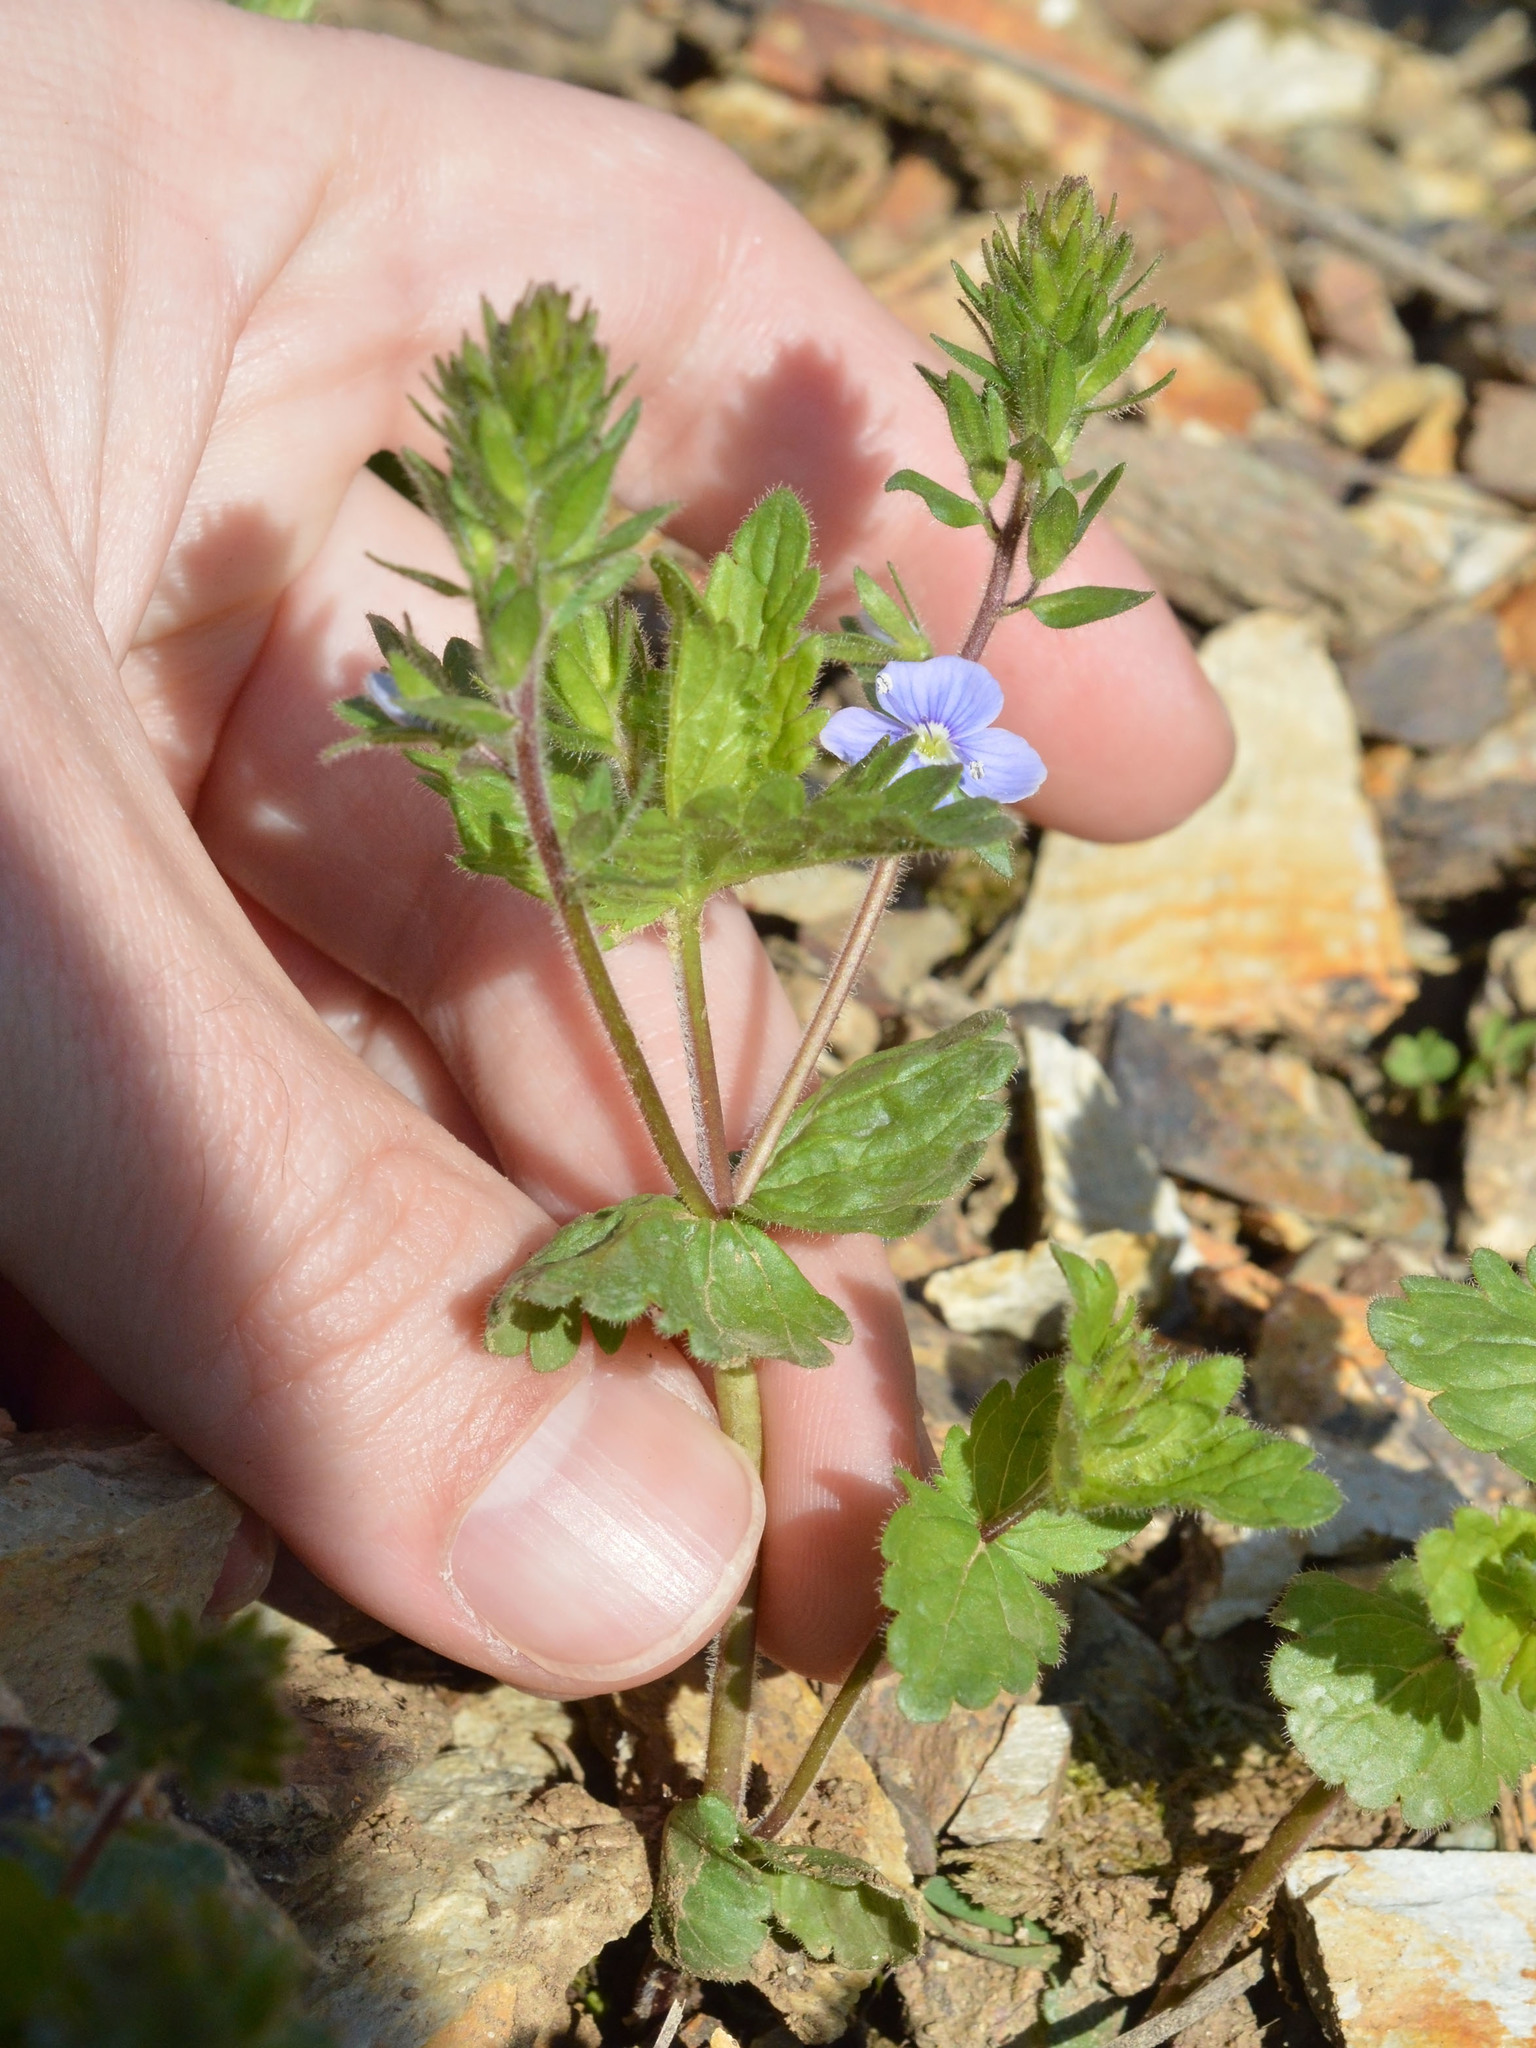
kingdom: Plantae
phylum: Tracheophyta
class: Magnoliopsida
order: Lamiales
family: Plantaginaceae
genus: Veronica
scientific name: Veronica chamaedrys
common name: Germander speedwell
